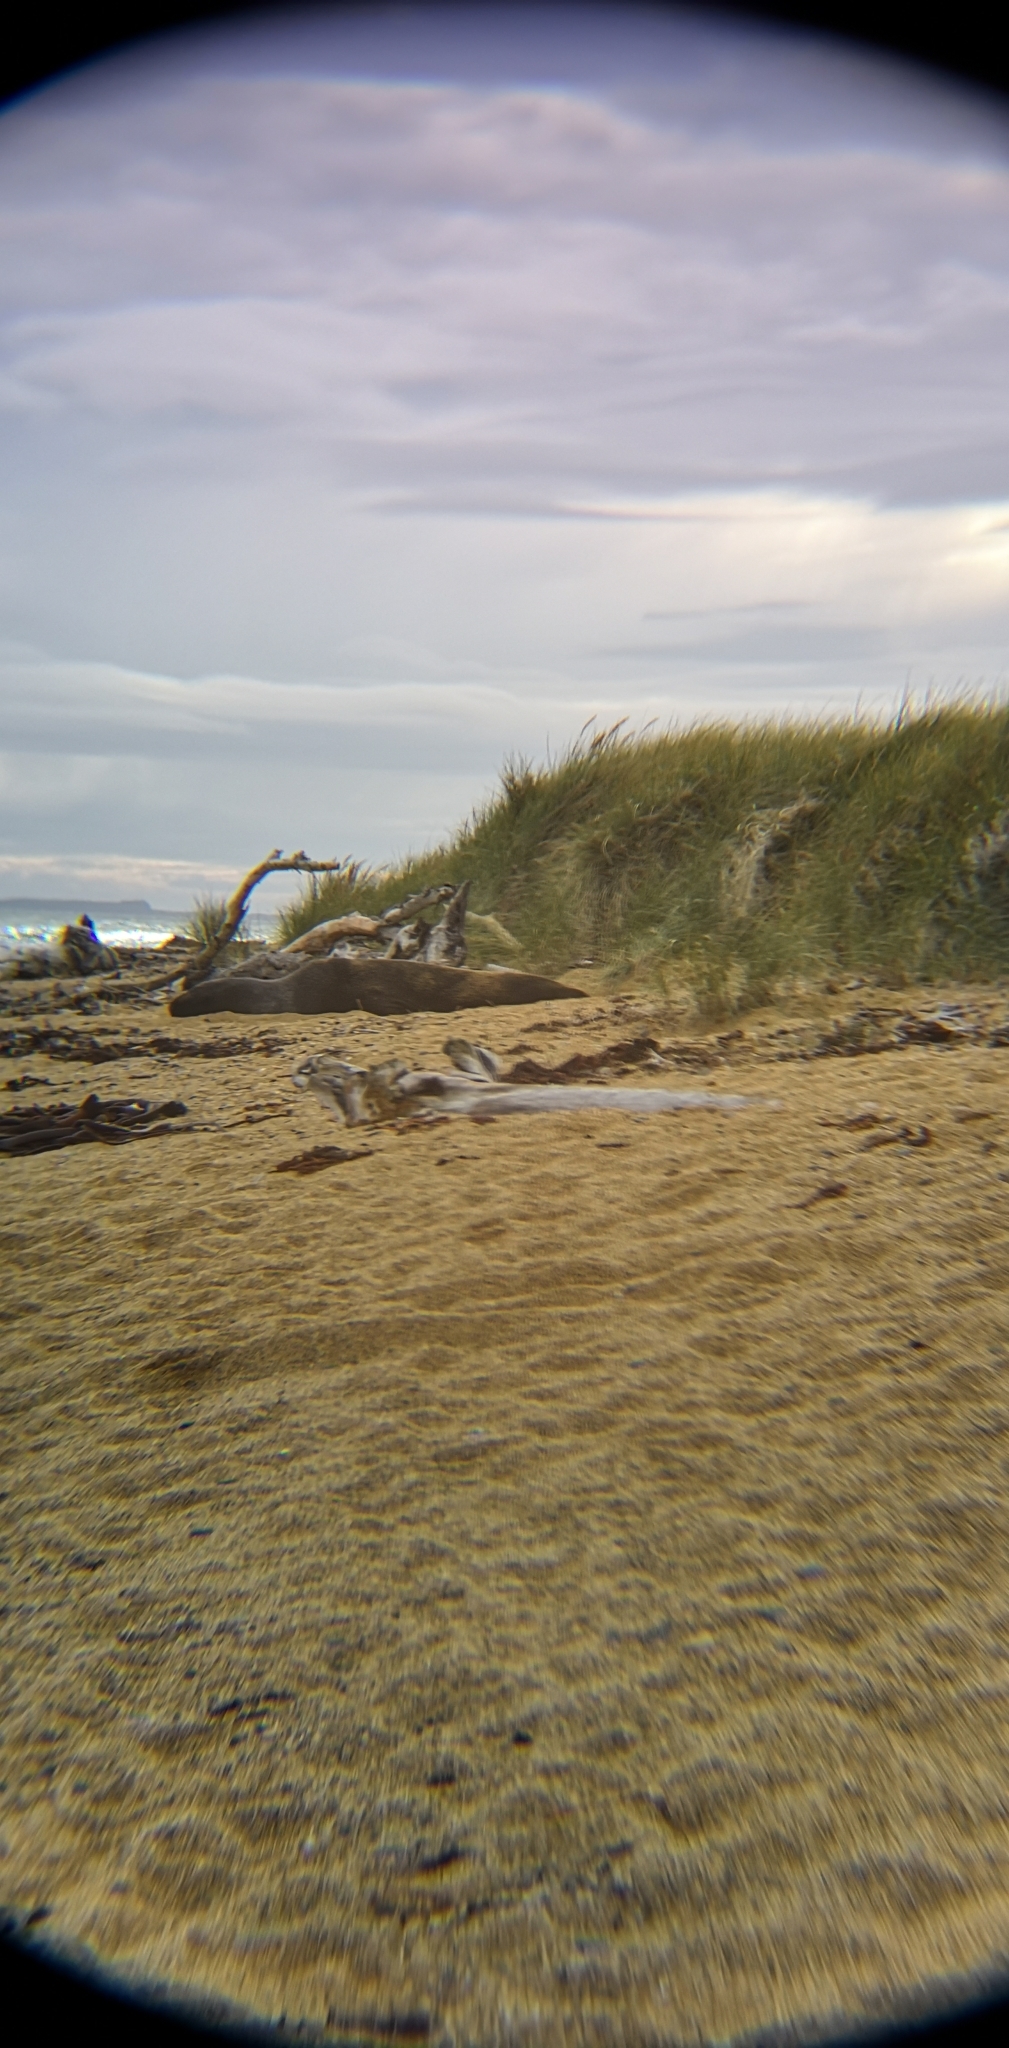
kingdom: Animalia
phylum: Chordata
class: Mammalia
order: Carnivora
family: Otariidae
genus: Phocarctos
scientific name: Phocarctos hookeri
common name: New zealand sea lion
